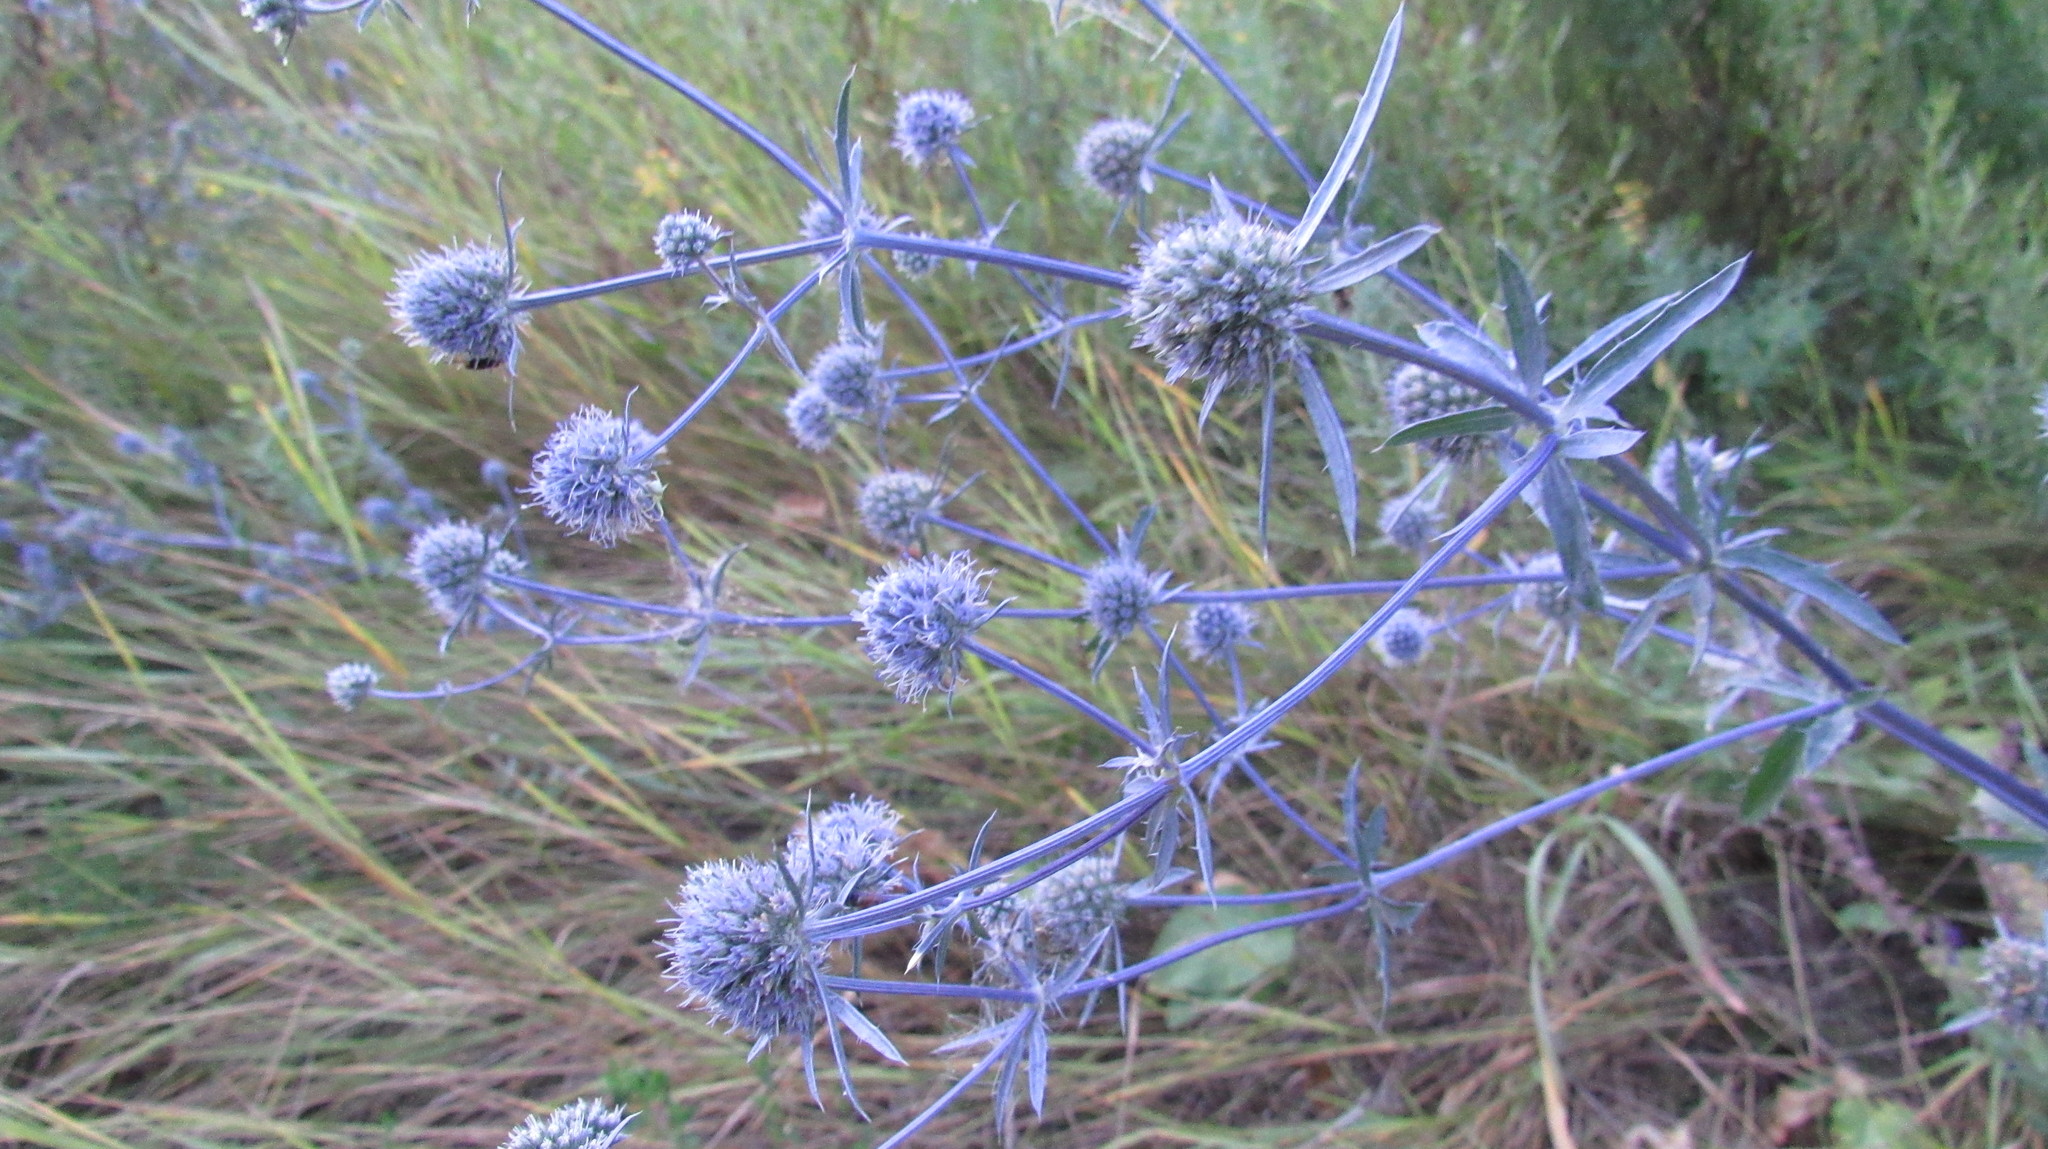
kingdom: Plantae
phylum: Tracheophyta
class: Magnoliopsida
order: Apiales
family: Apiaceae
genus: Eryngium
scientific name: Eryngium planum
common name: Blue eryngo
